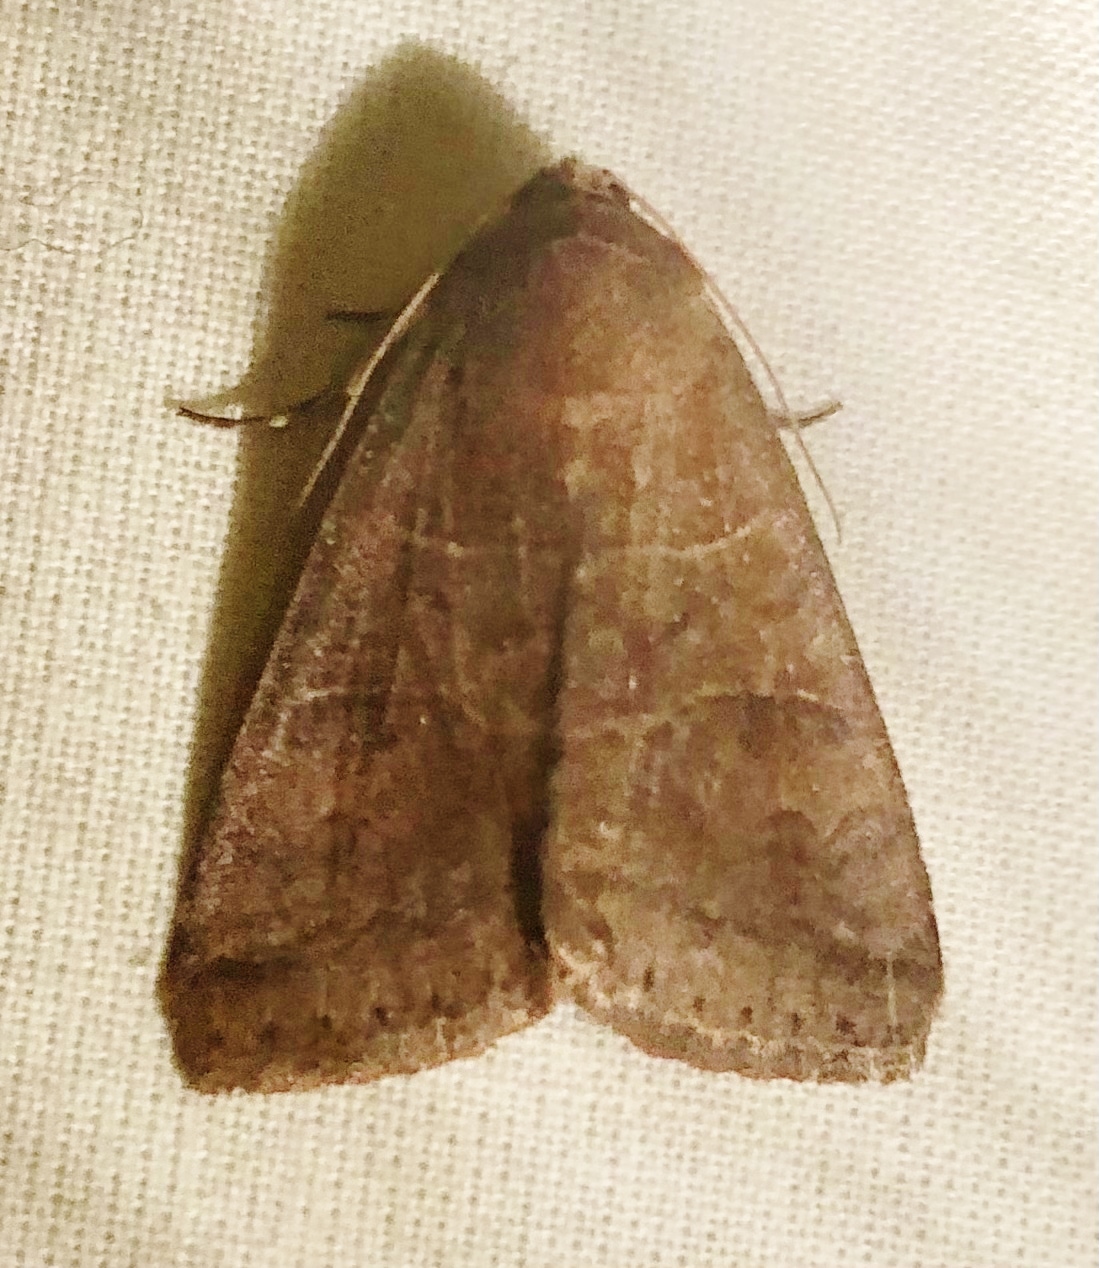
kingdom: Animalia
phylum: Arthropoda
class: Insecta
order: Lepidoptera
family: Erebidae
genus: Cissusa
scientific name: Cissusa spadix
